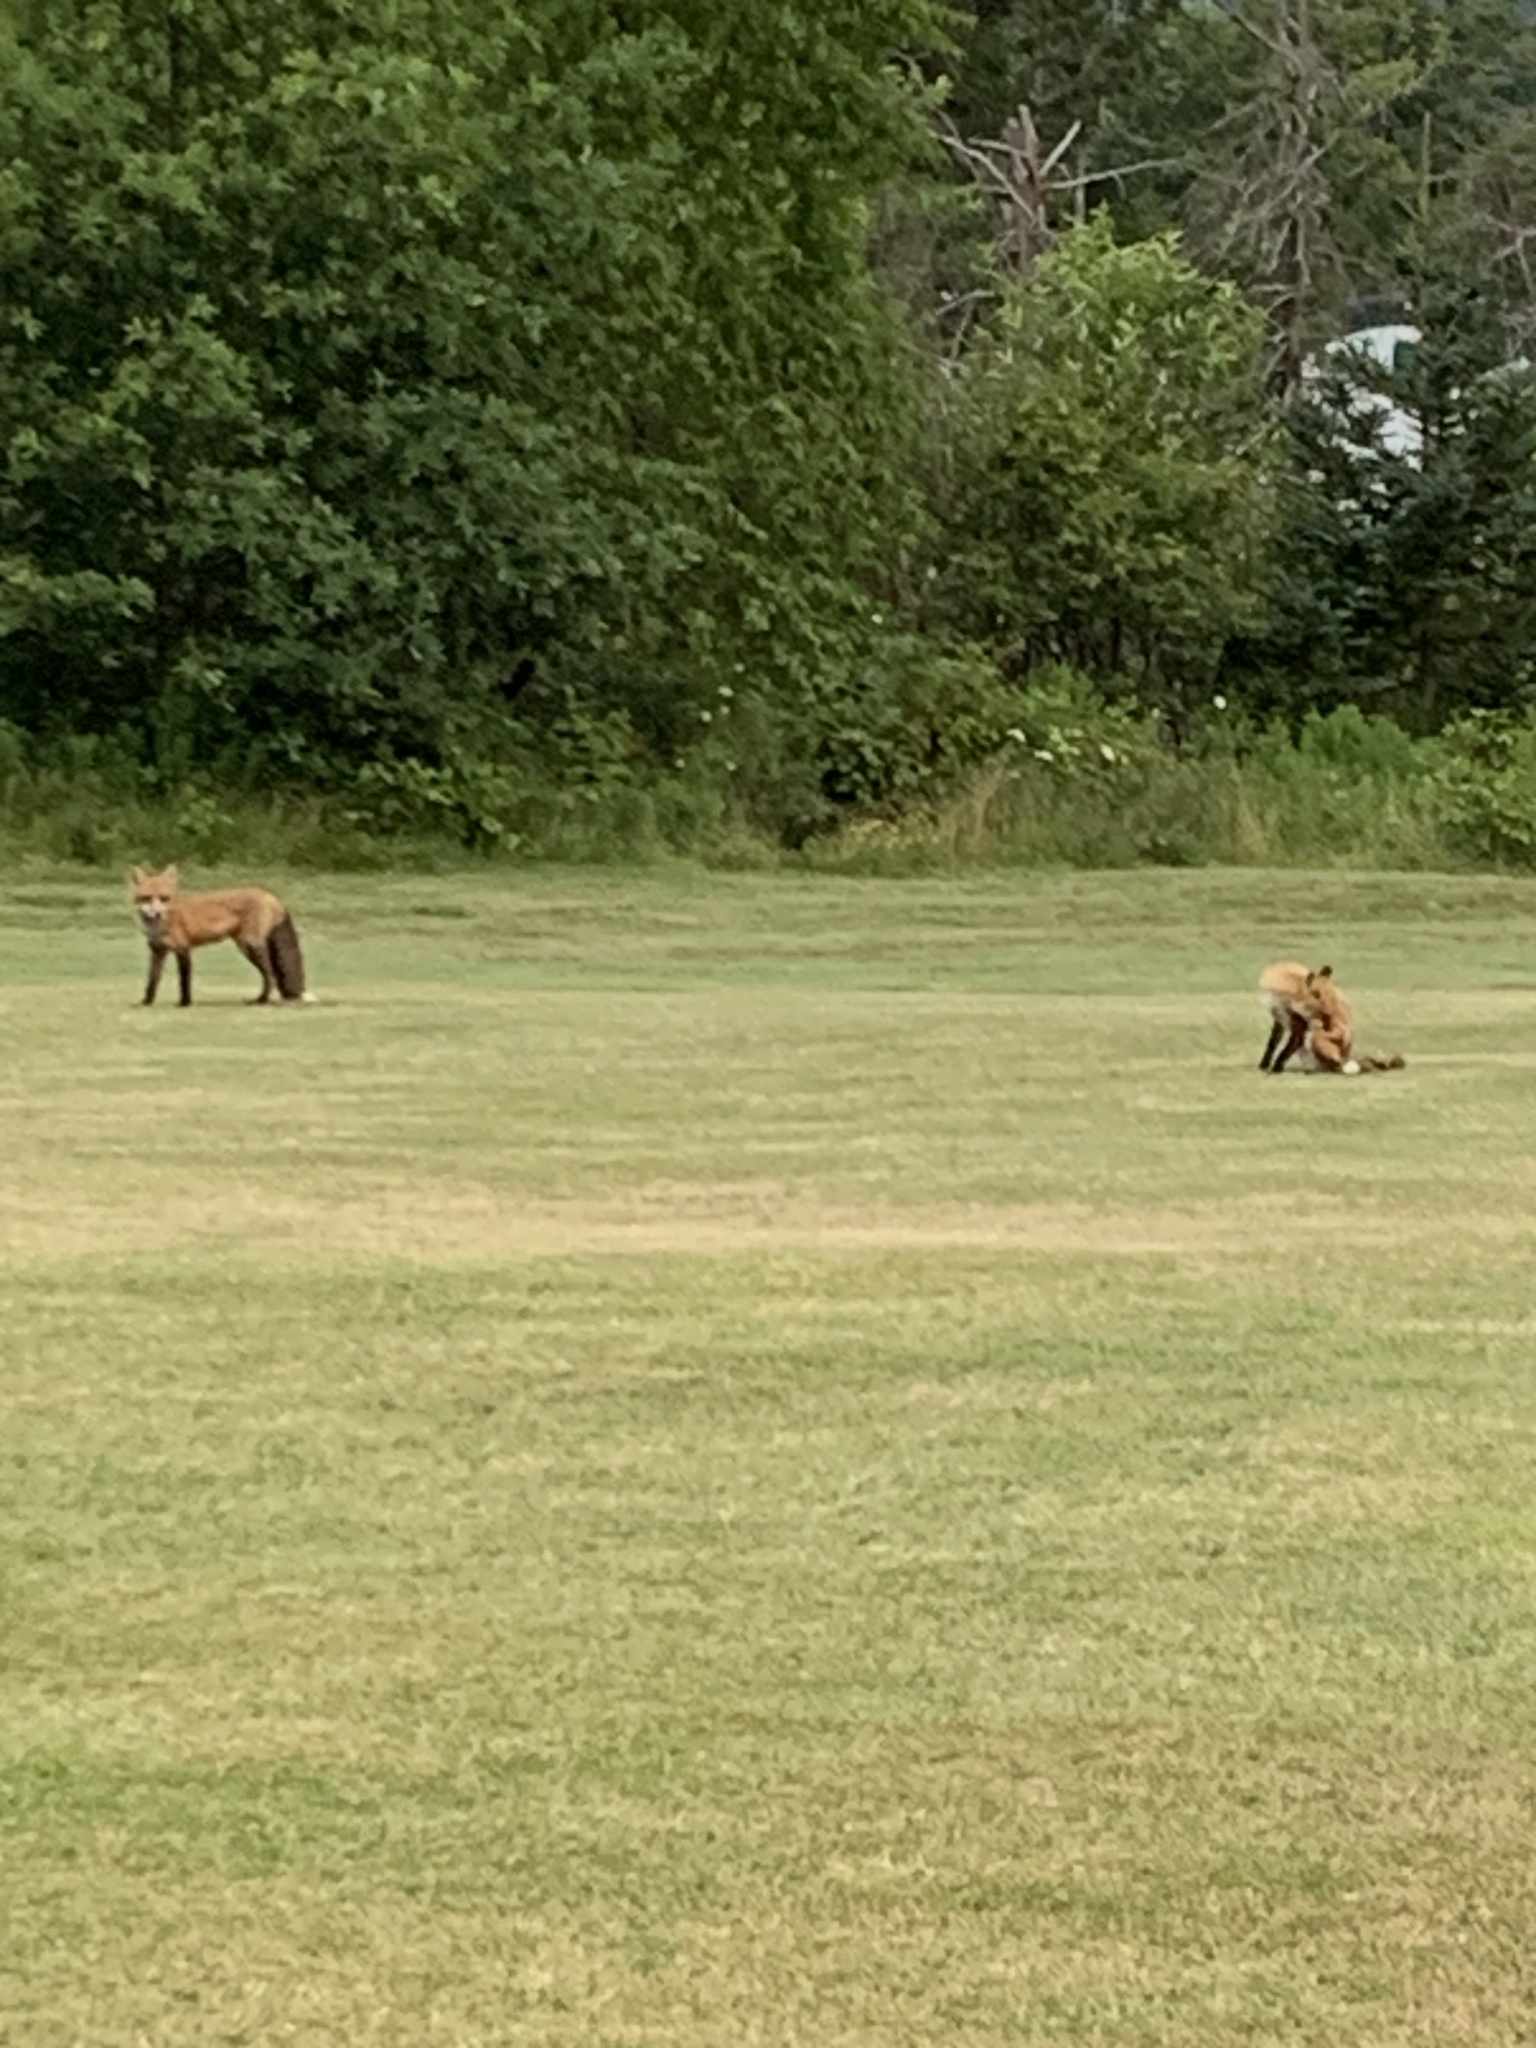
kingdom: Animalia
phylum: Chordata
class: Mammalia
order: Carnivora
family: Canidae
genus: Vulpes
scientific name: Vulpes vulpes
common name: Red fox
